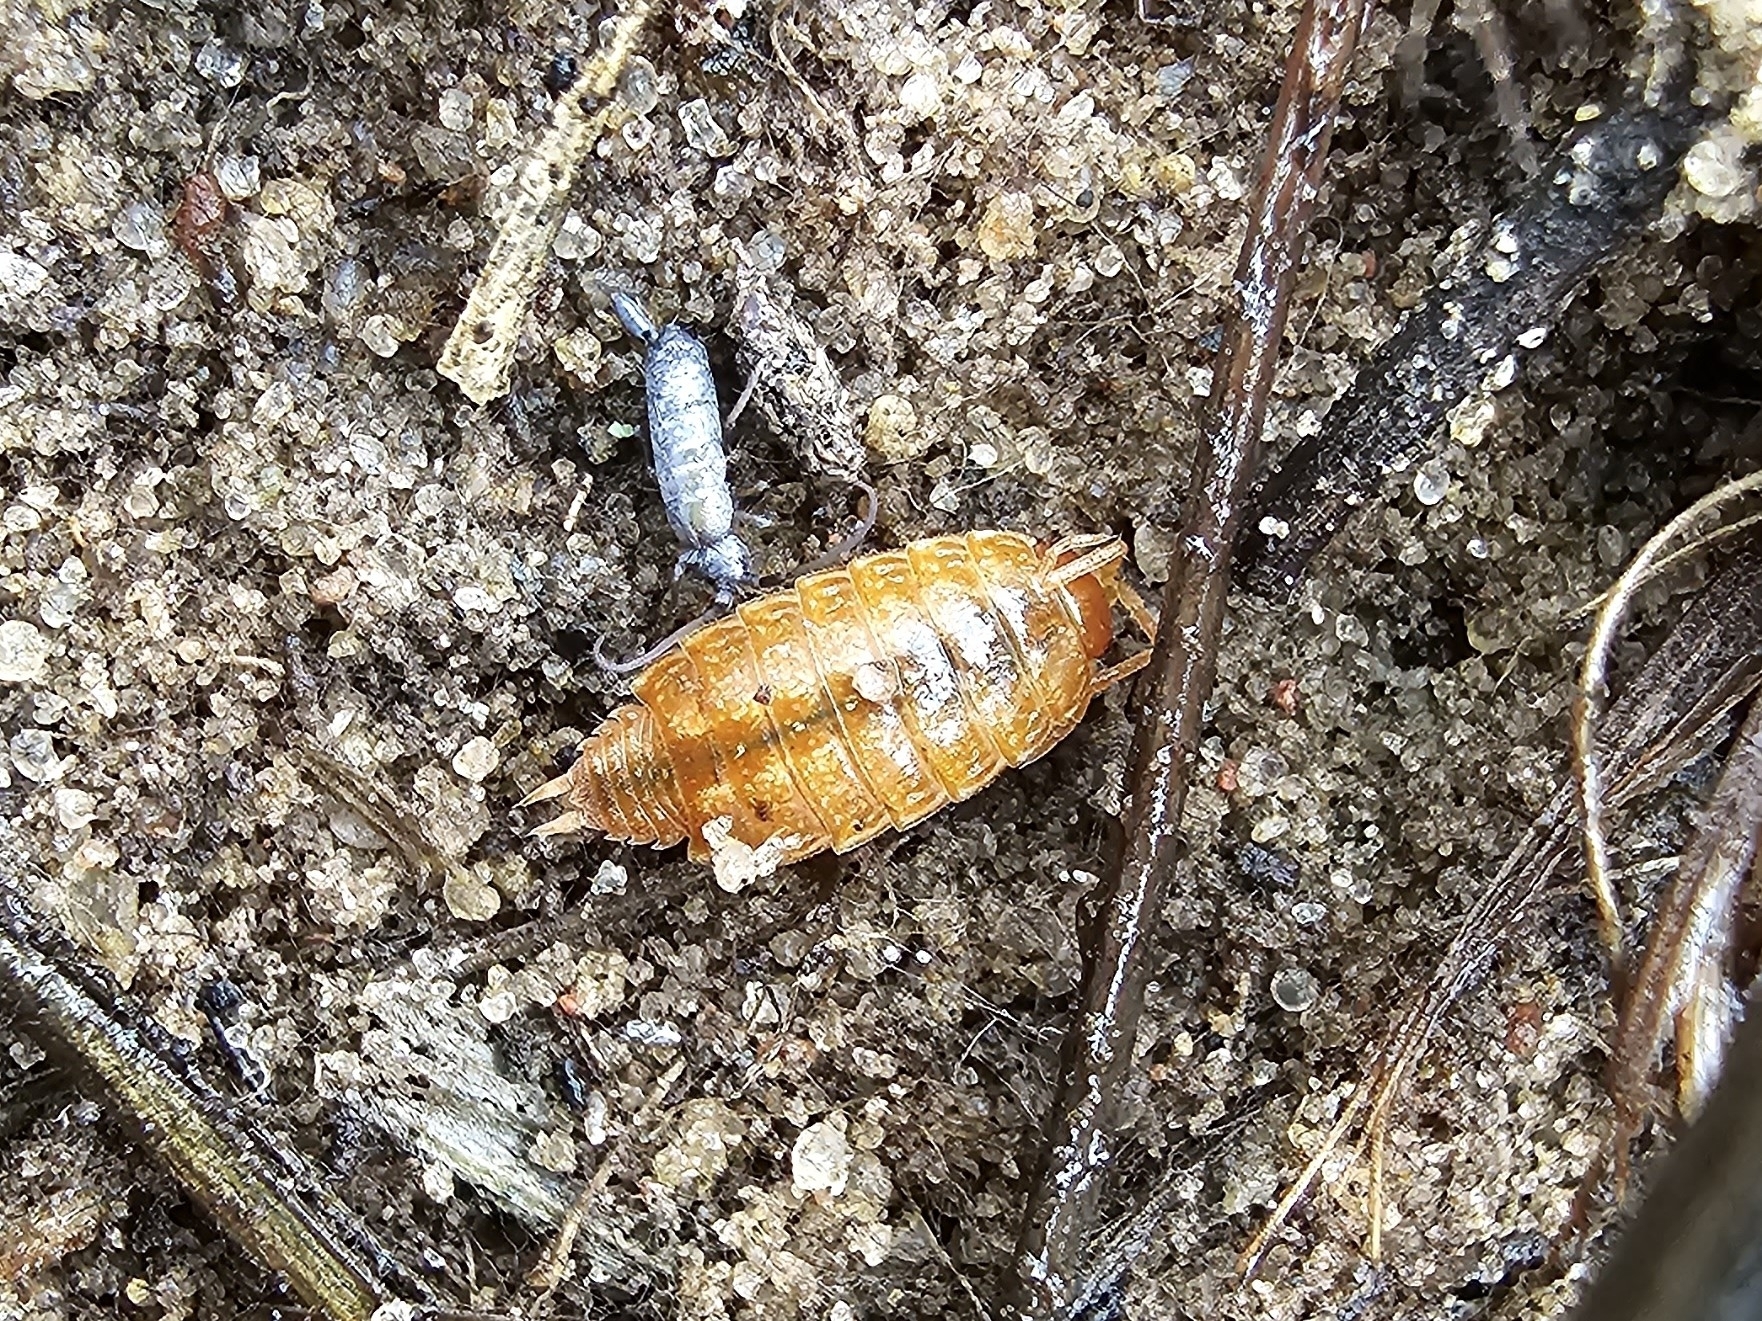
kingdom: Animalia
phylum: Arthropoda
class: Malacostraca
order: Isopoda
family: Philosciidae
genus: Philoscia
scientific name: Philoscia muscorum
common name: Common striped woodlouse
